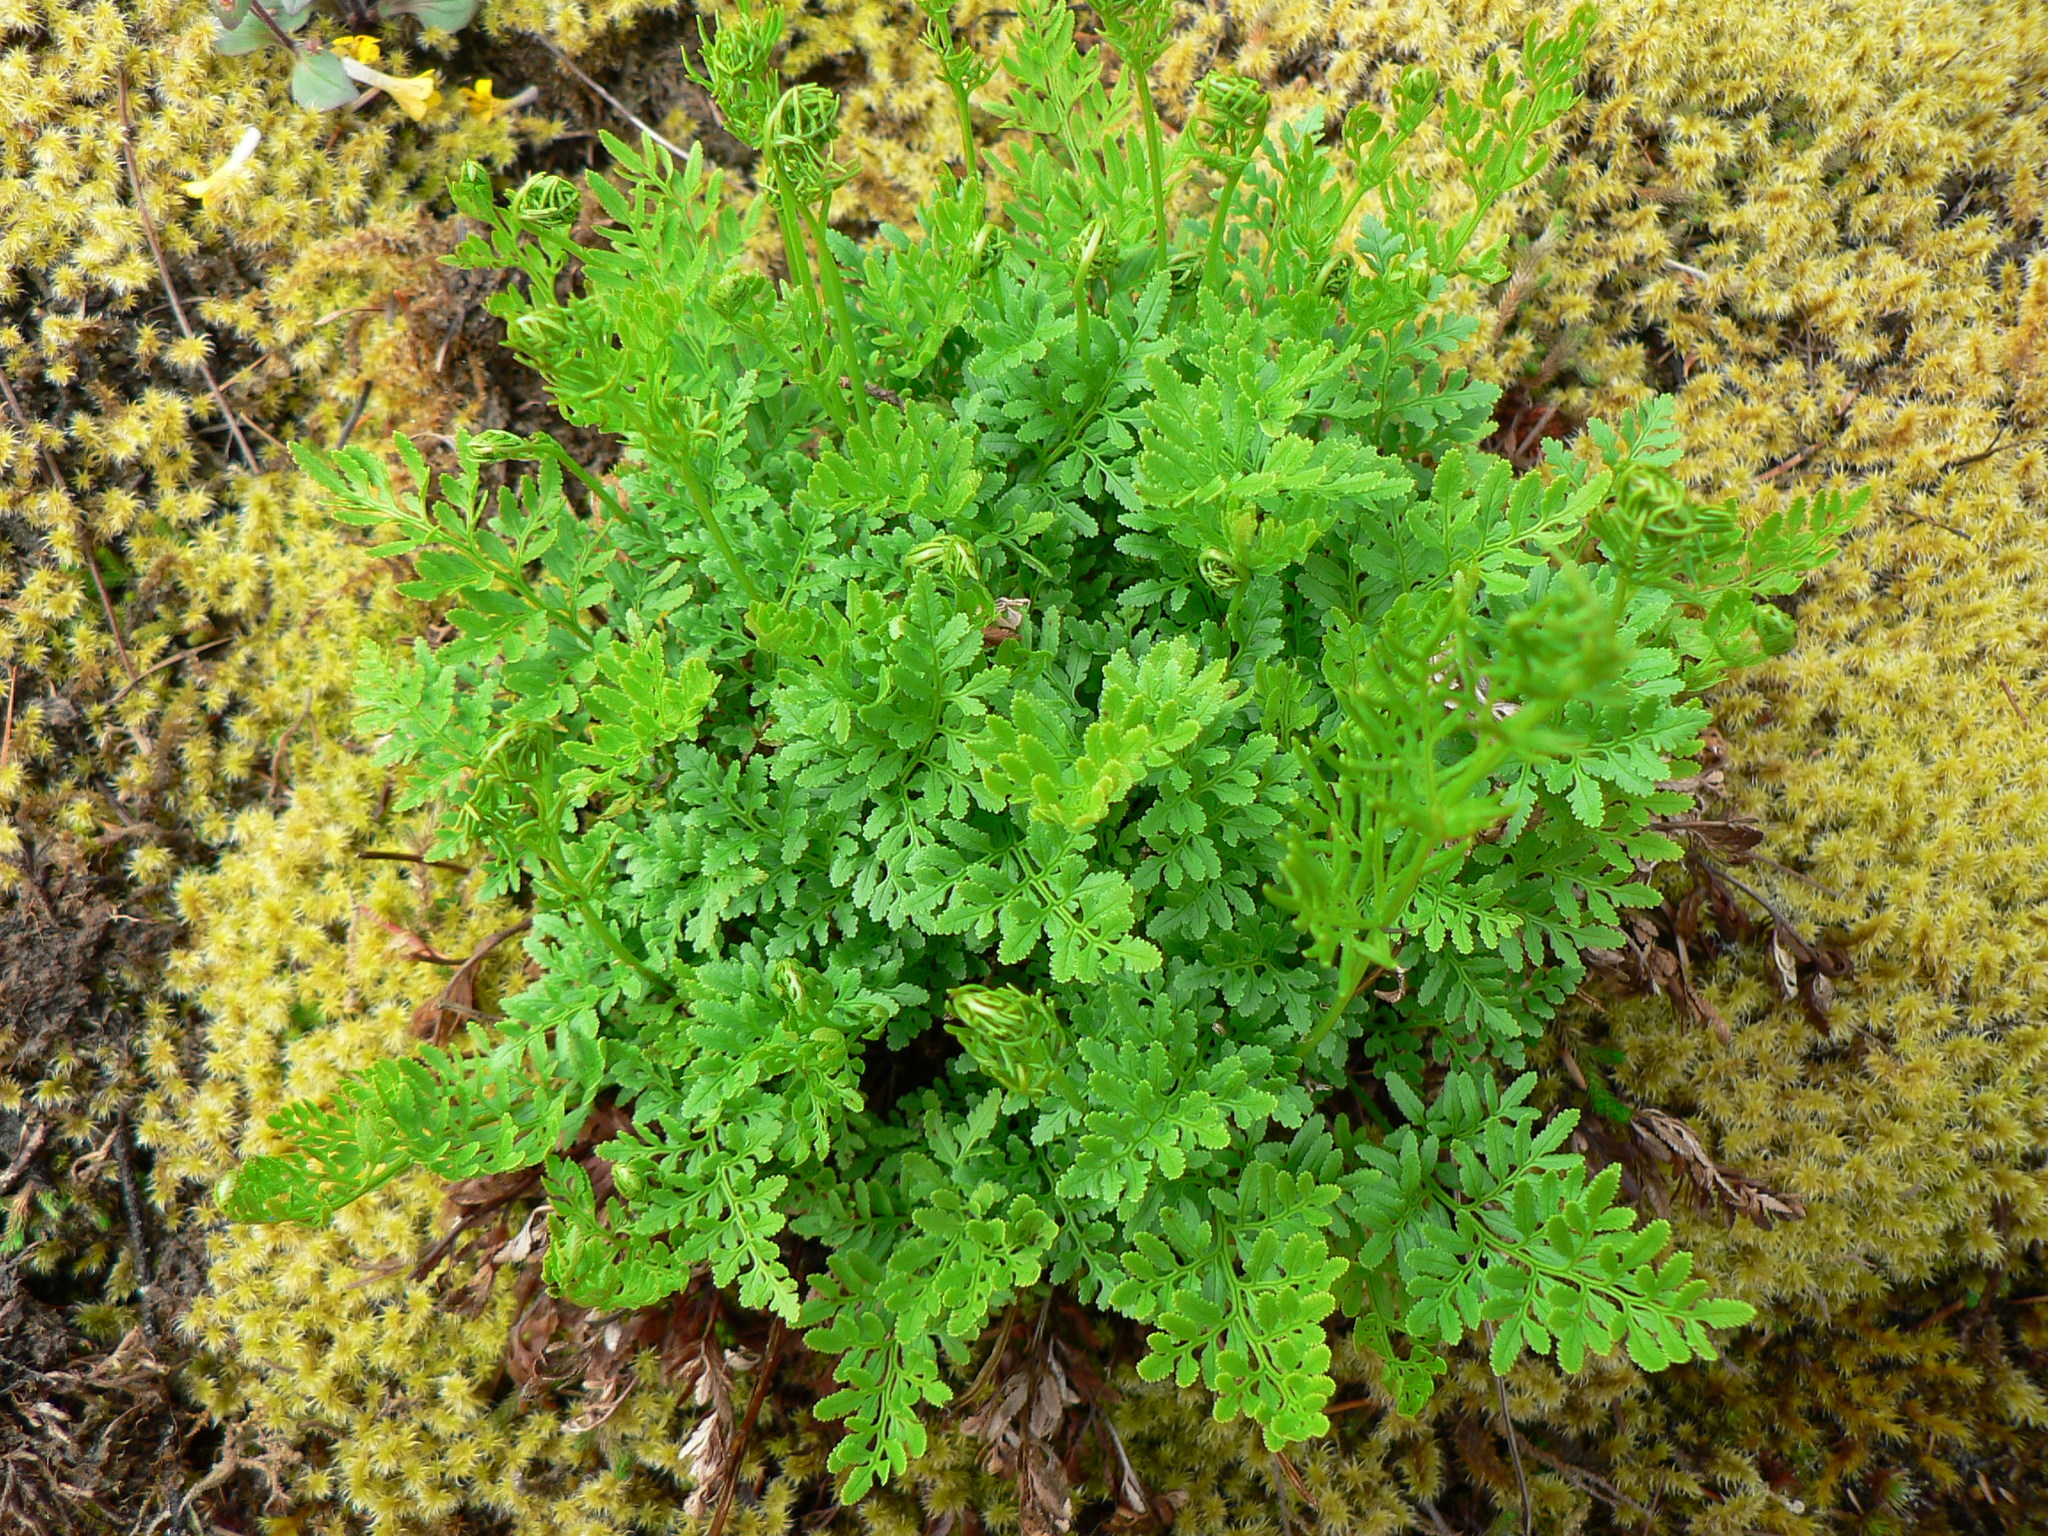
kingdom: Plantae
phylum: Tracheophyta
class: Polypodiopsida
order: Polypodiales
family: Pteridaceae
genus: Cryptogramma
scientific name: Cryptogramma acrostichoides
